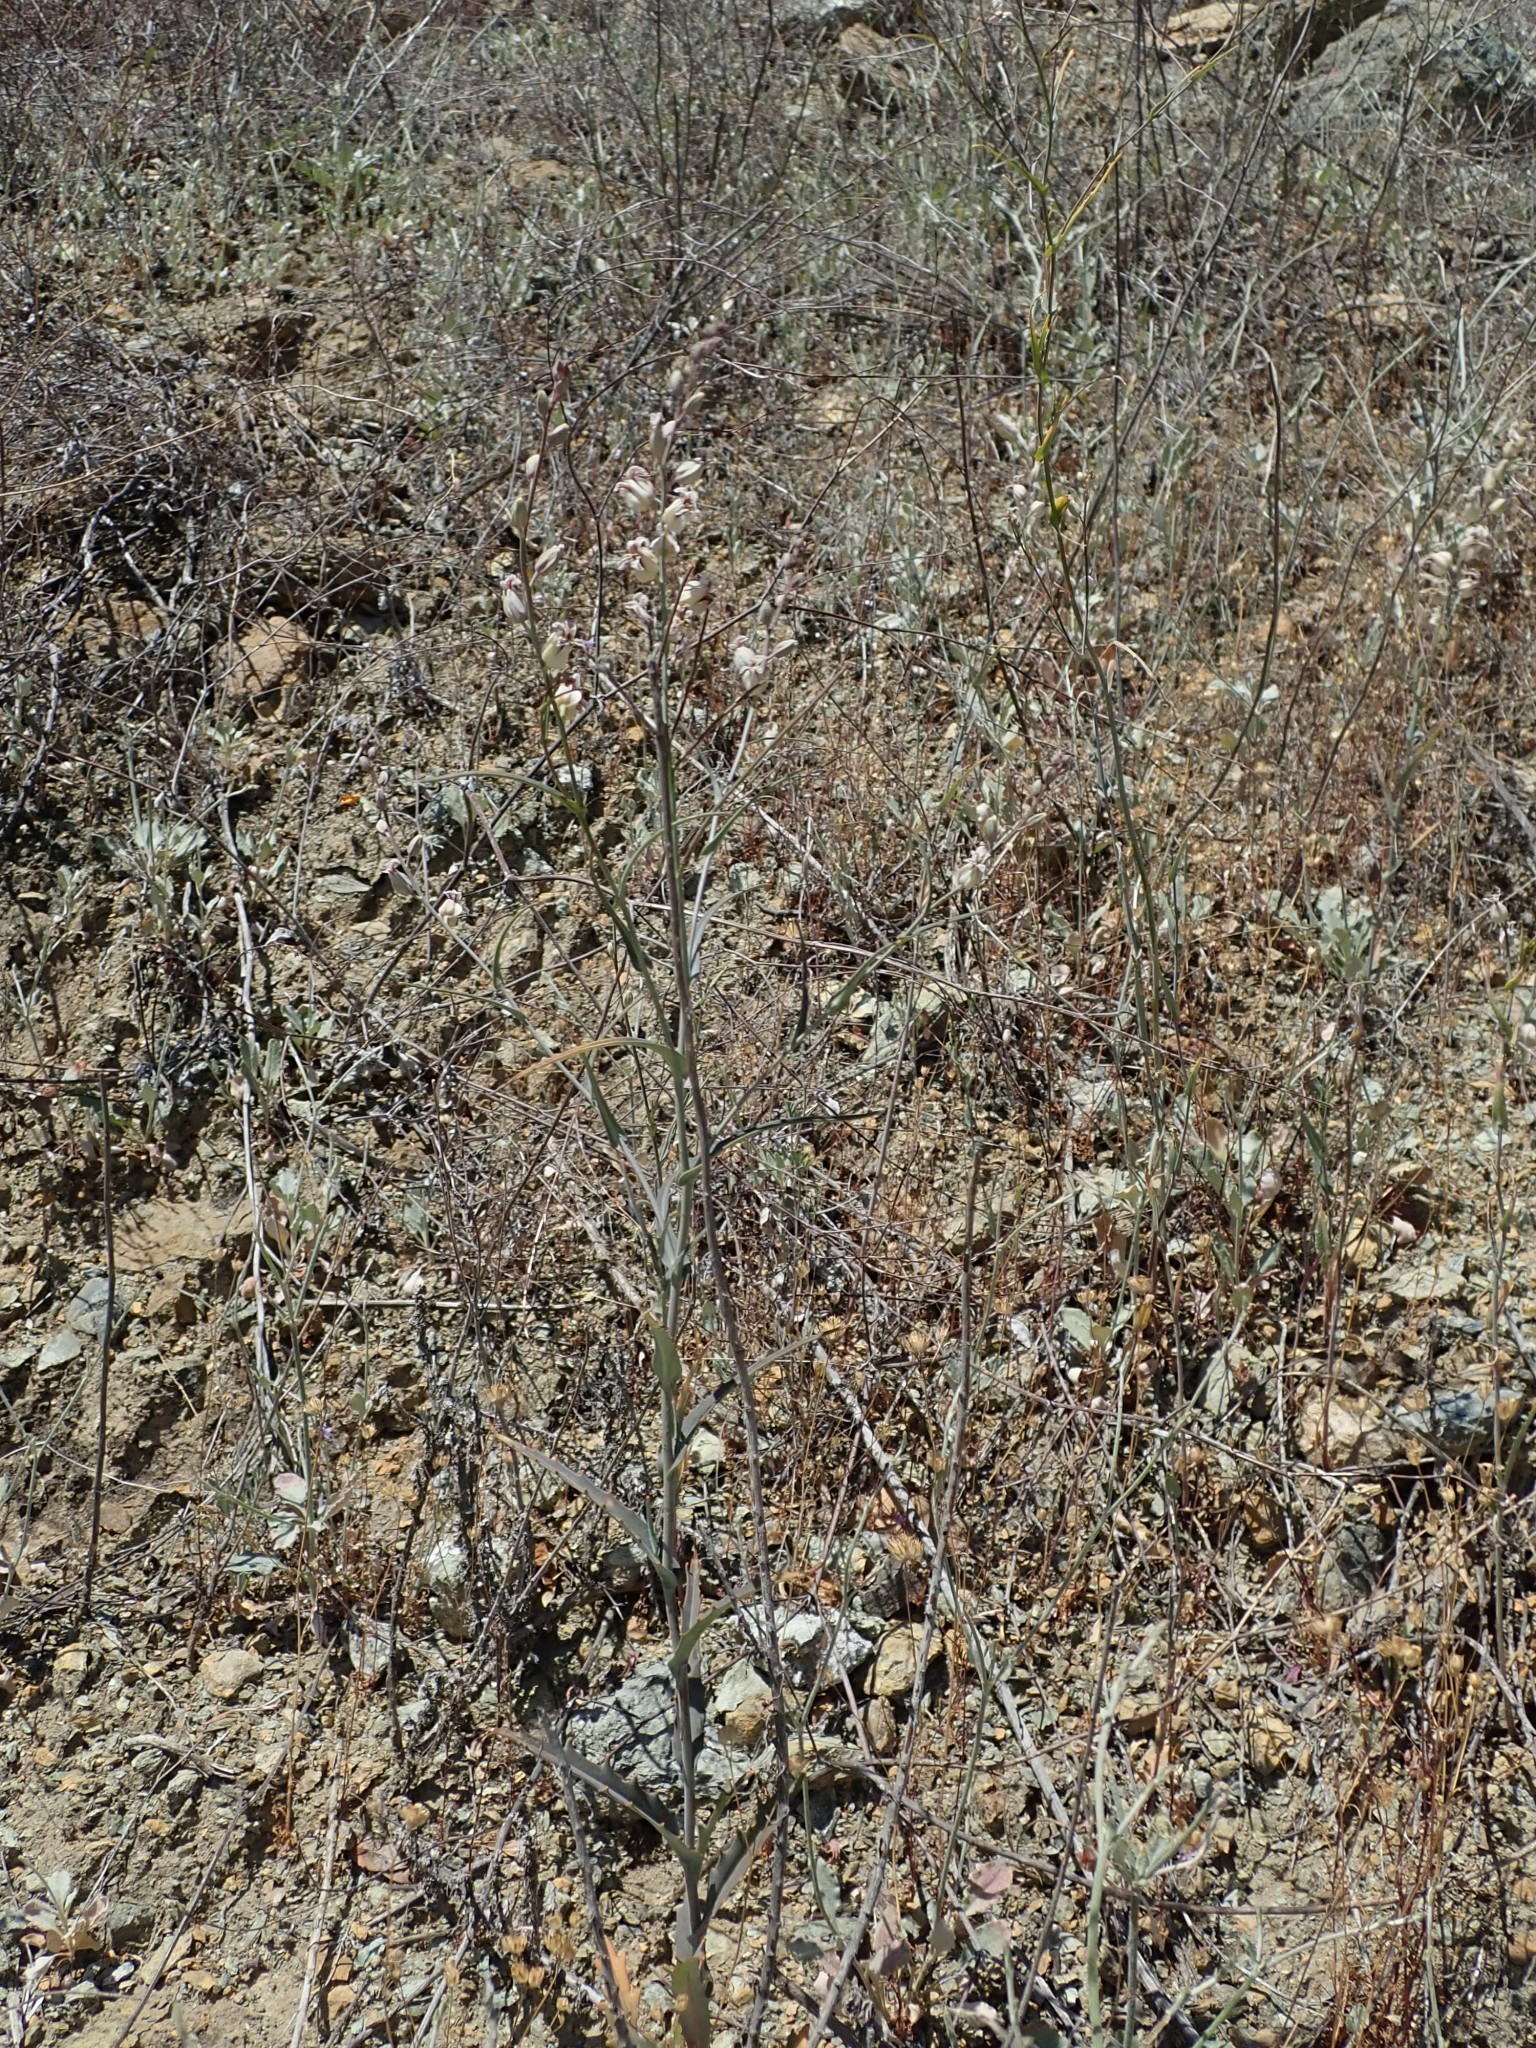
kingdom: Plantae
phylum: Tracheophyta
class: Magnoliopsida
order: Brassicales
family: Brassicaceae
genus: Streptanthus
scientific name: Streptanthus glandulosus
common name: Jewel-flower
